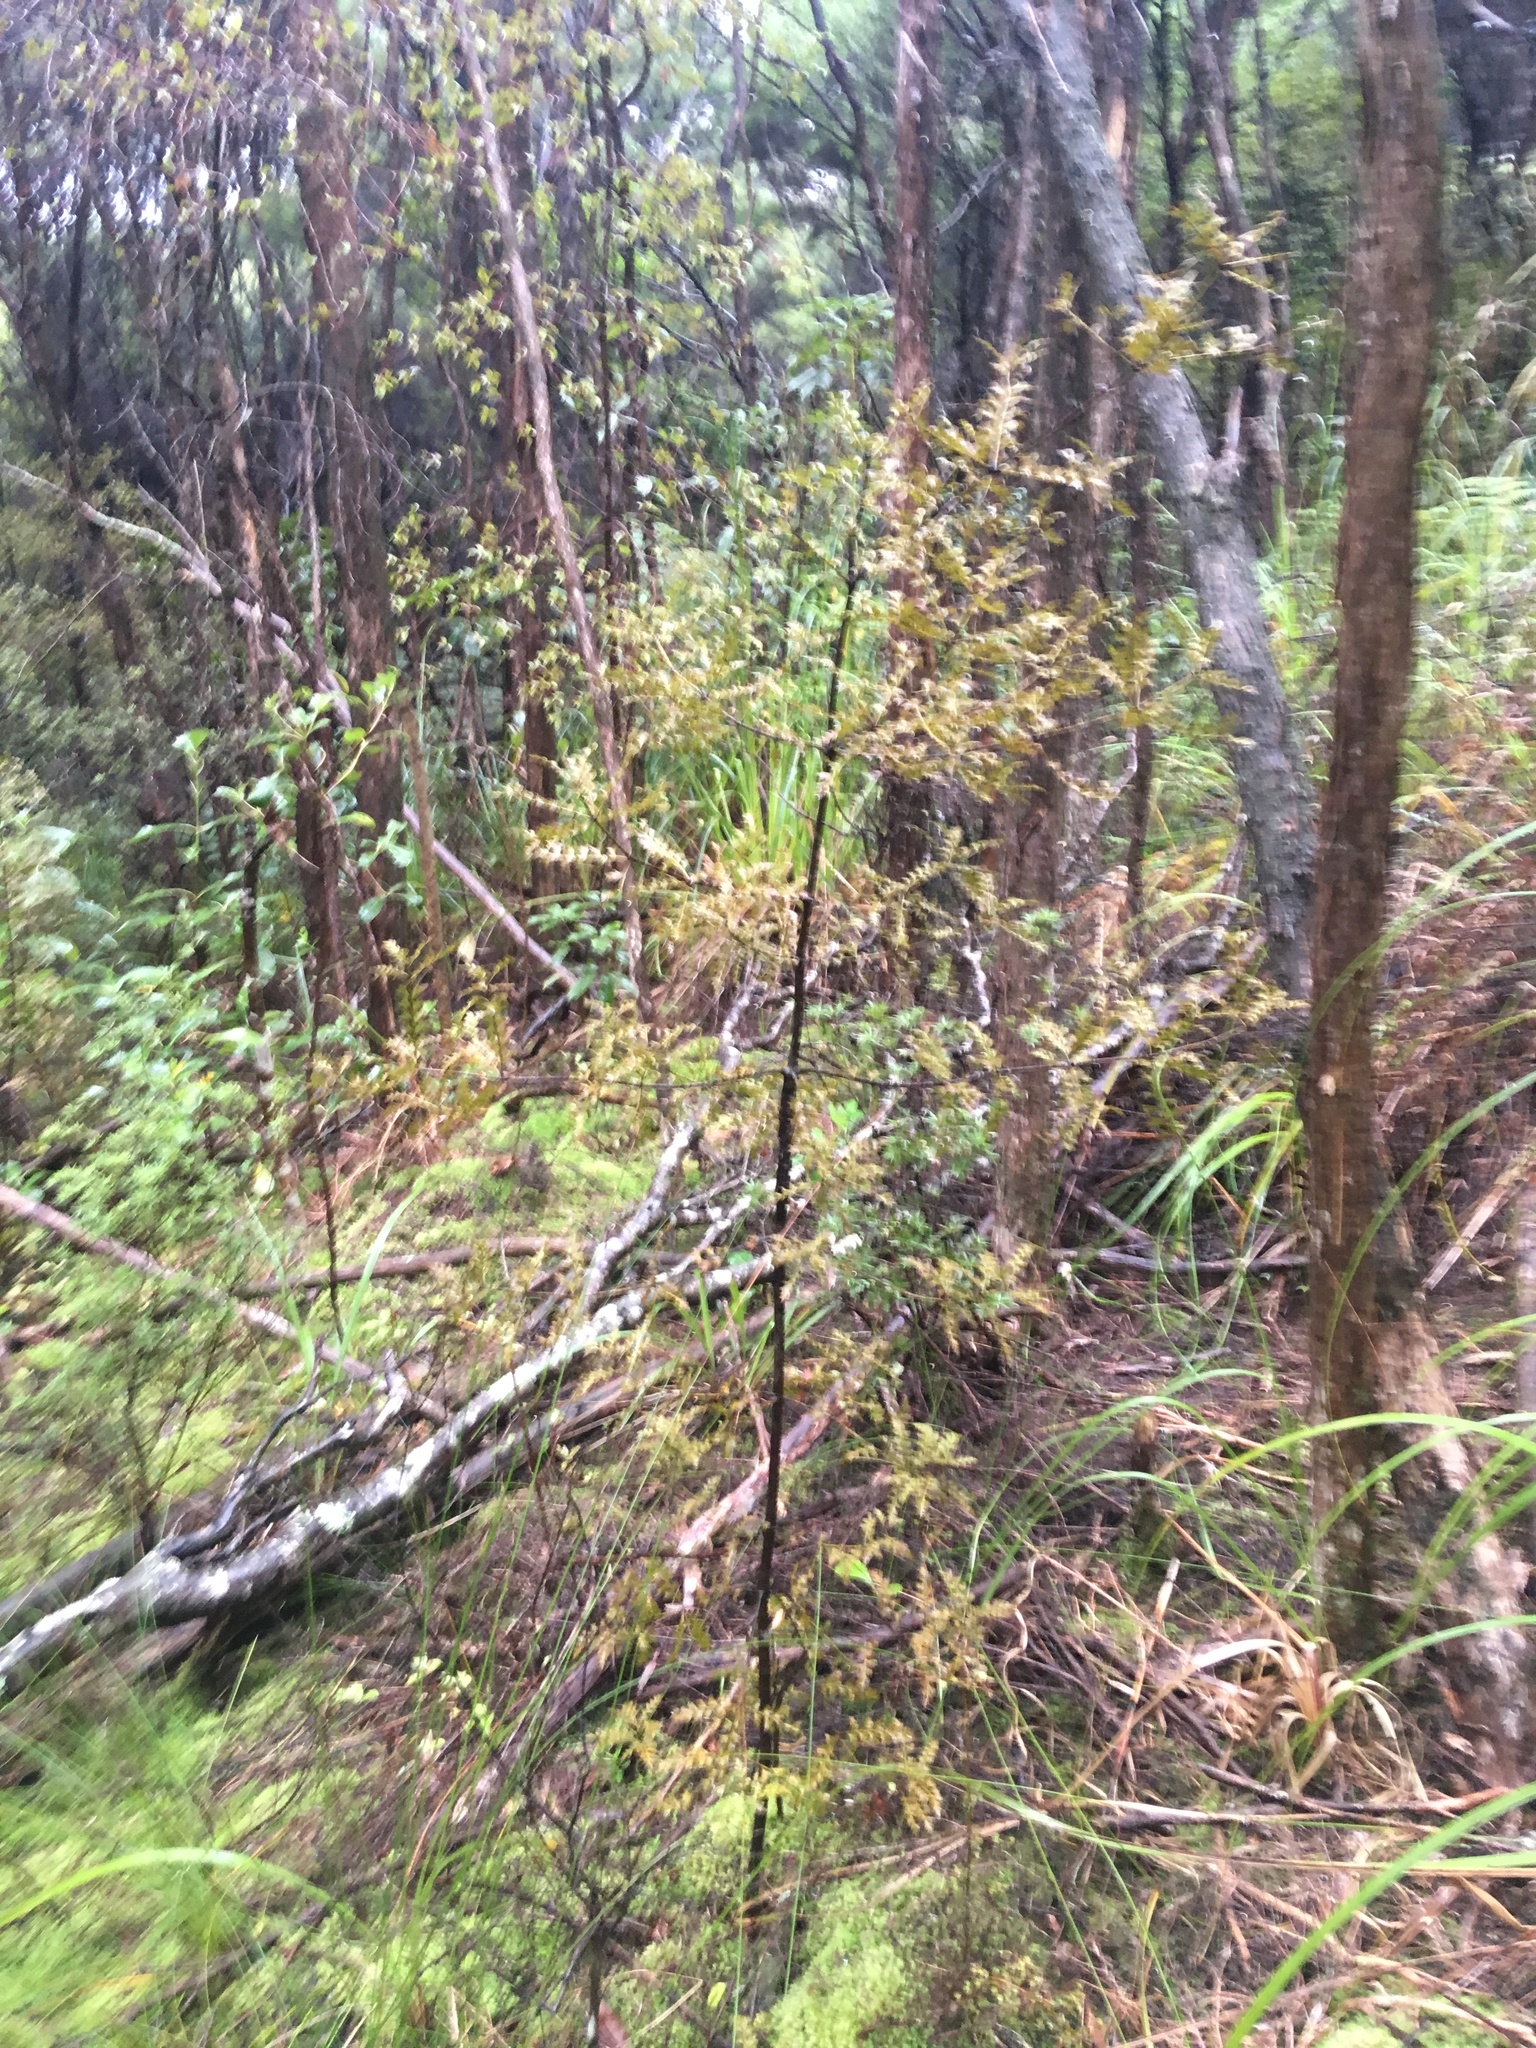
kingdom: Plantae
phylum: Tracheophyta
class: Pinopsida
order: Pinales
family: Phyllocladaceae
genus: Phyllocladus
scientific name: Phyllocladus trichomanoides
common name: Celery pine
